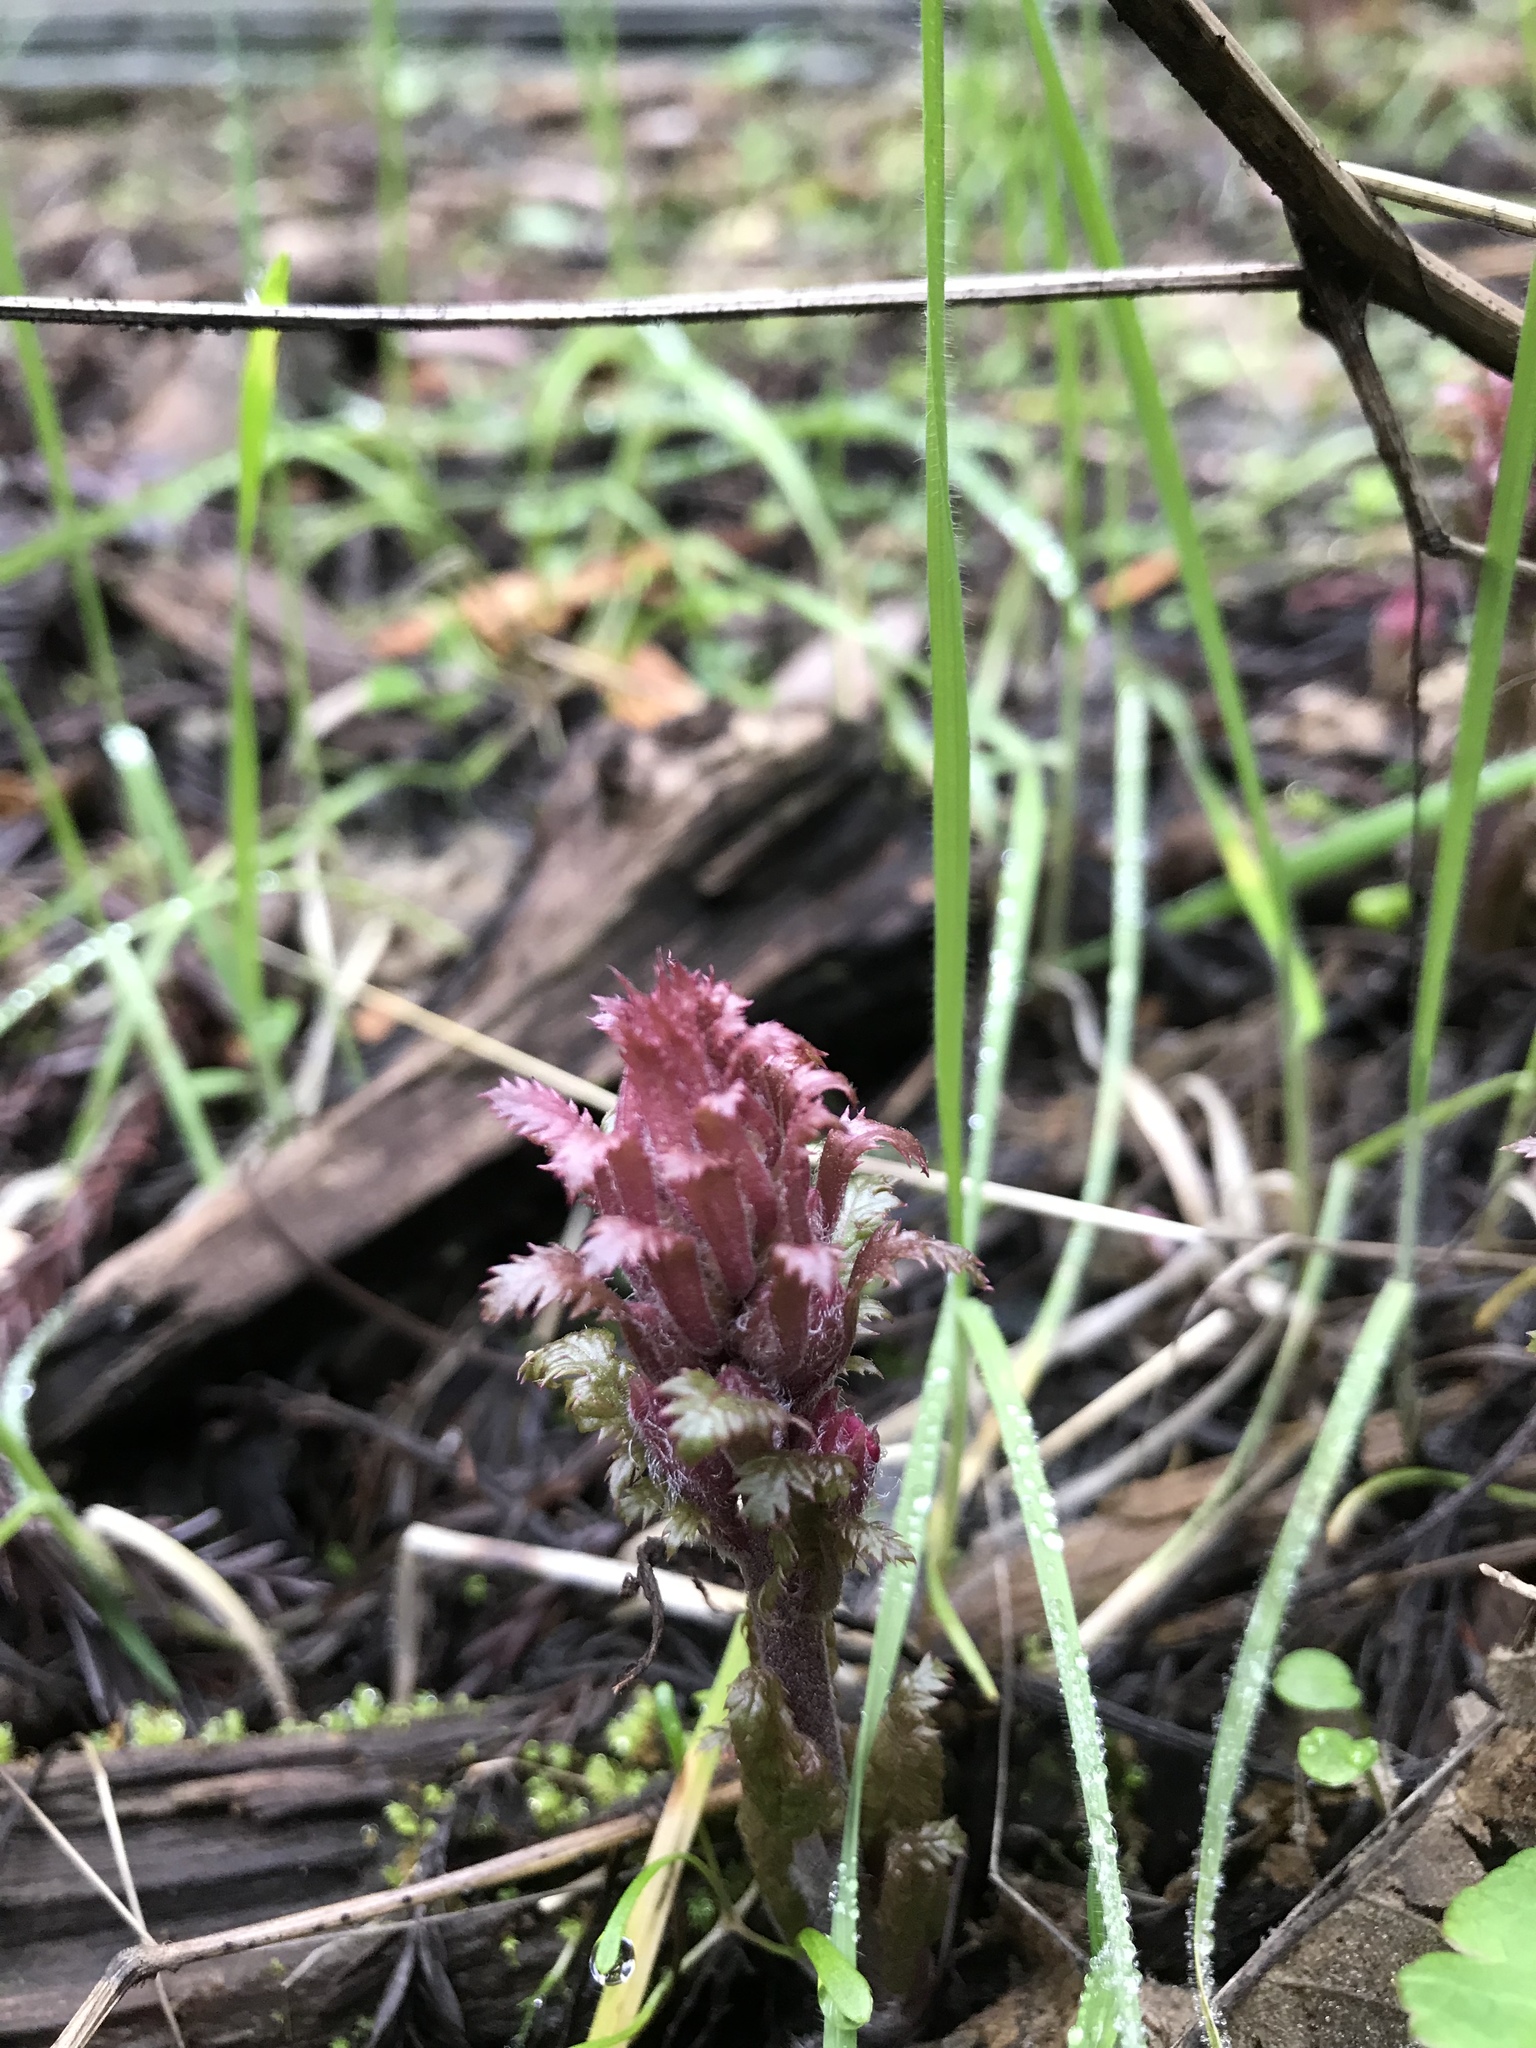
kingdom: Plantae
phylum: Tracheophyta
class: Magnoliopsida
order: Lamiales
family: Orobanchaceae
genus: Pedicularis
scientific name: Pedicularis densiflora
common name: Indian warrior
